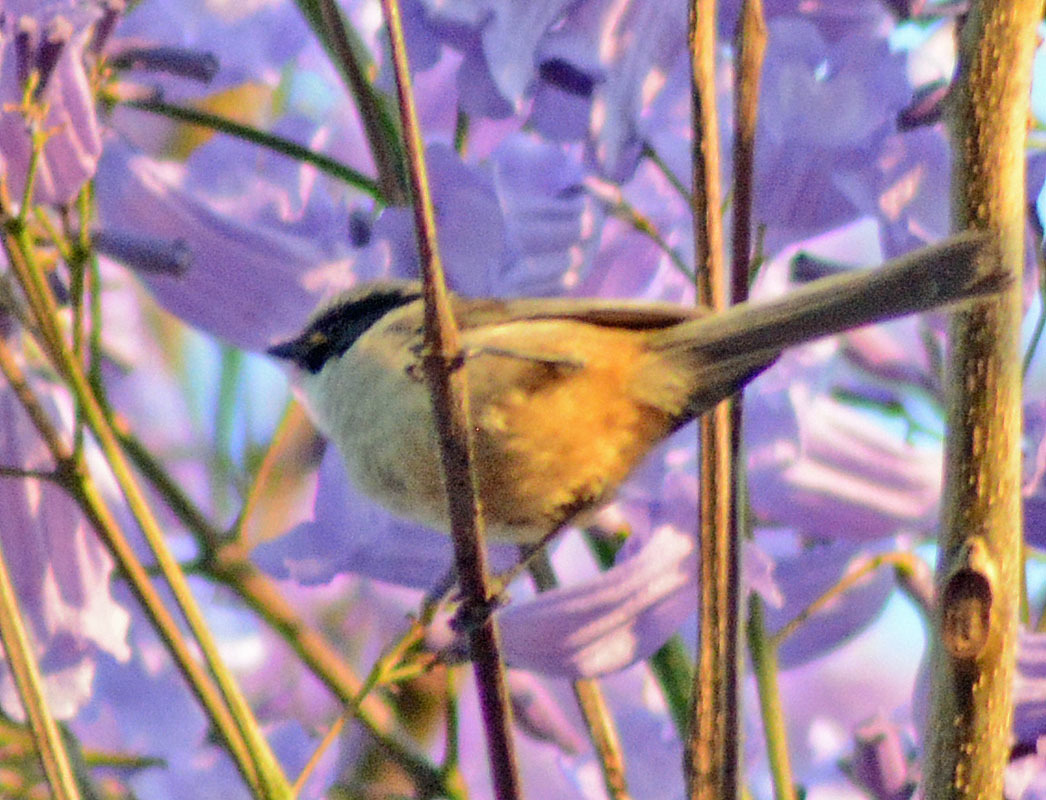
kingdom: Animalia
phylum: Chordata
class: Aves
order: Passeriformes
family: Aegithalidae
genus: Psaltriparus
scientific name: Psaltriparus minimus
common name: American bushtit
